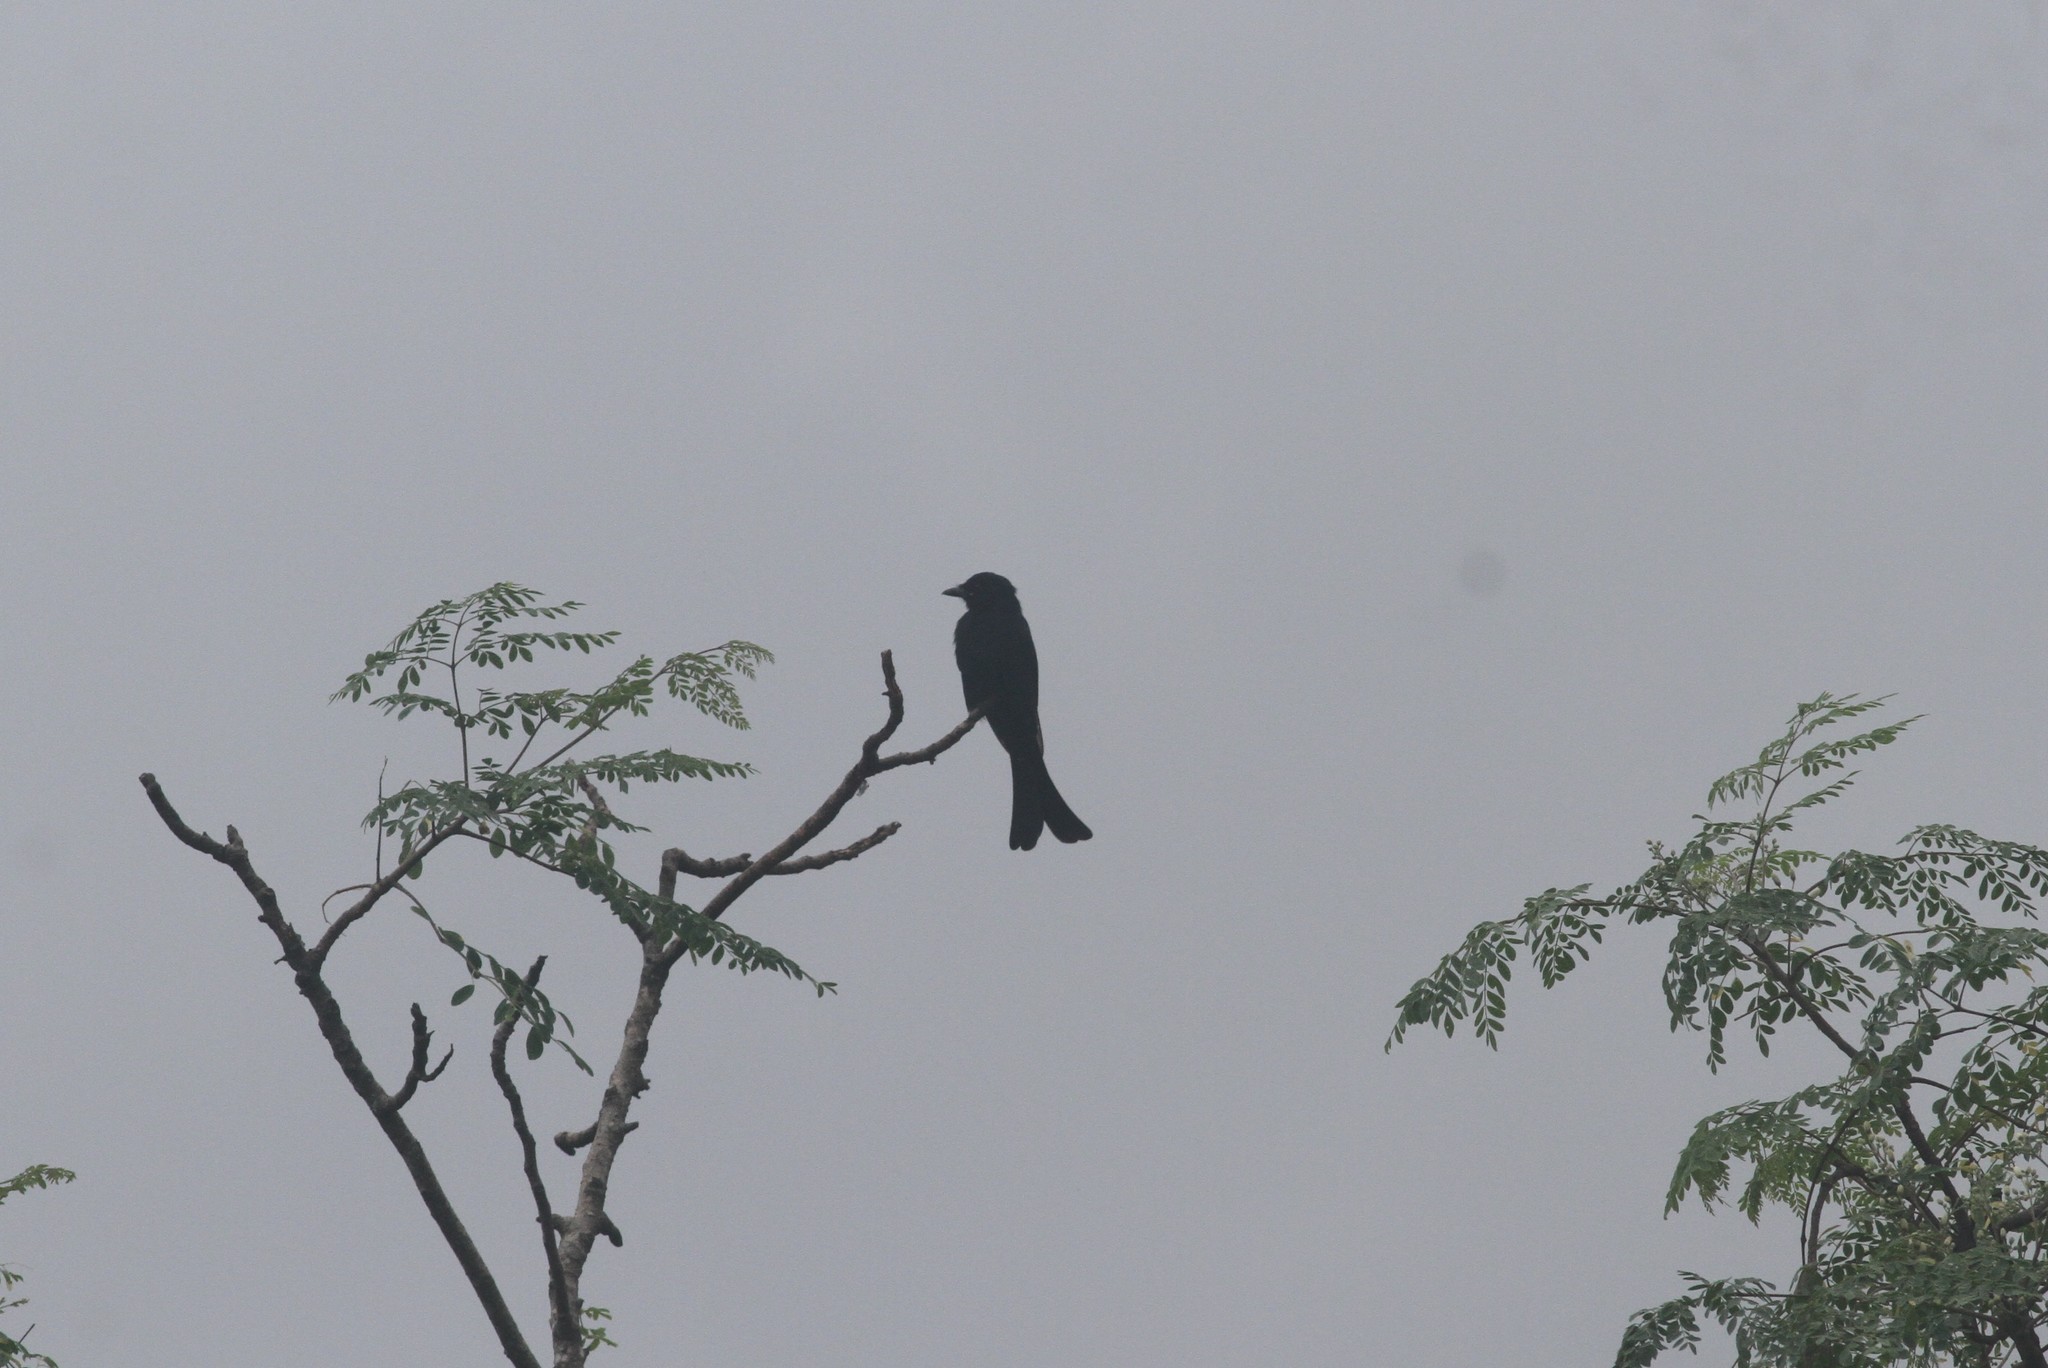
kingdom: Animalia
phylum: Chordata
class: Aves
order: Passeriformes
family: Dicruridae
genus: Dicrurus
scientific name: Dicrurus macrocercus
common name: Black drongo
